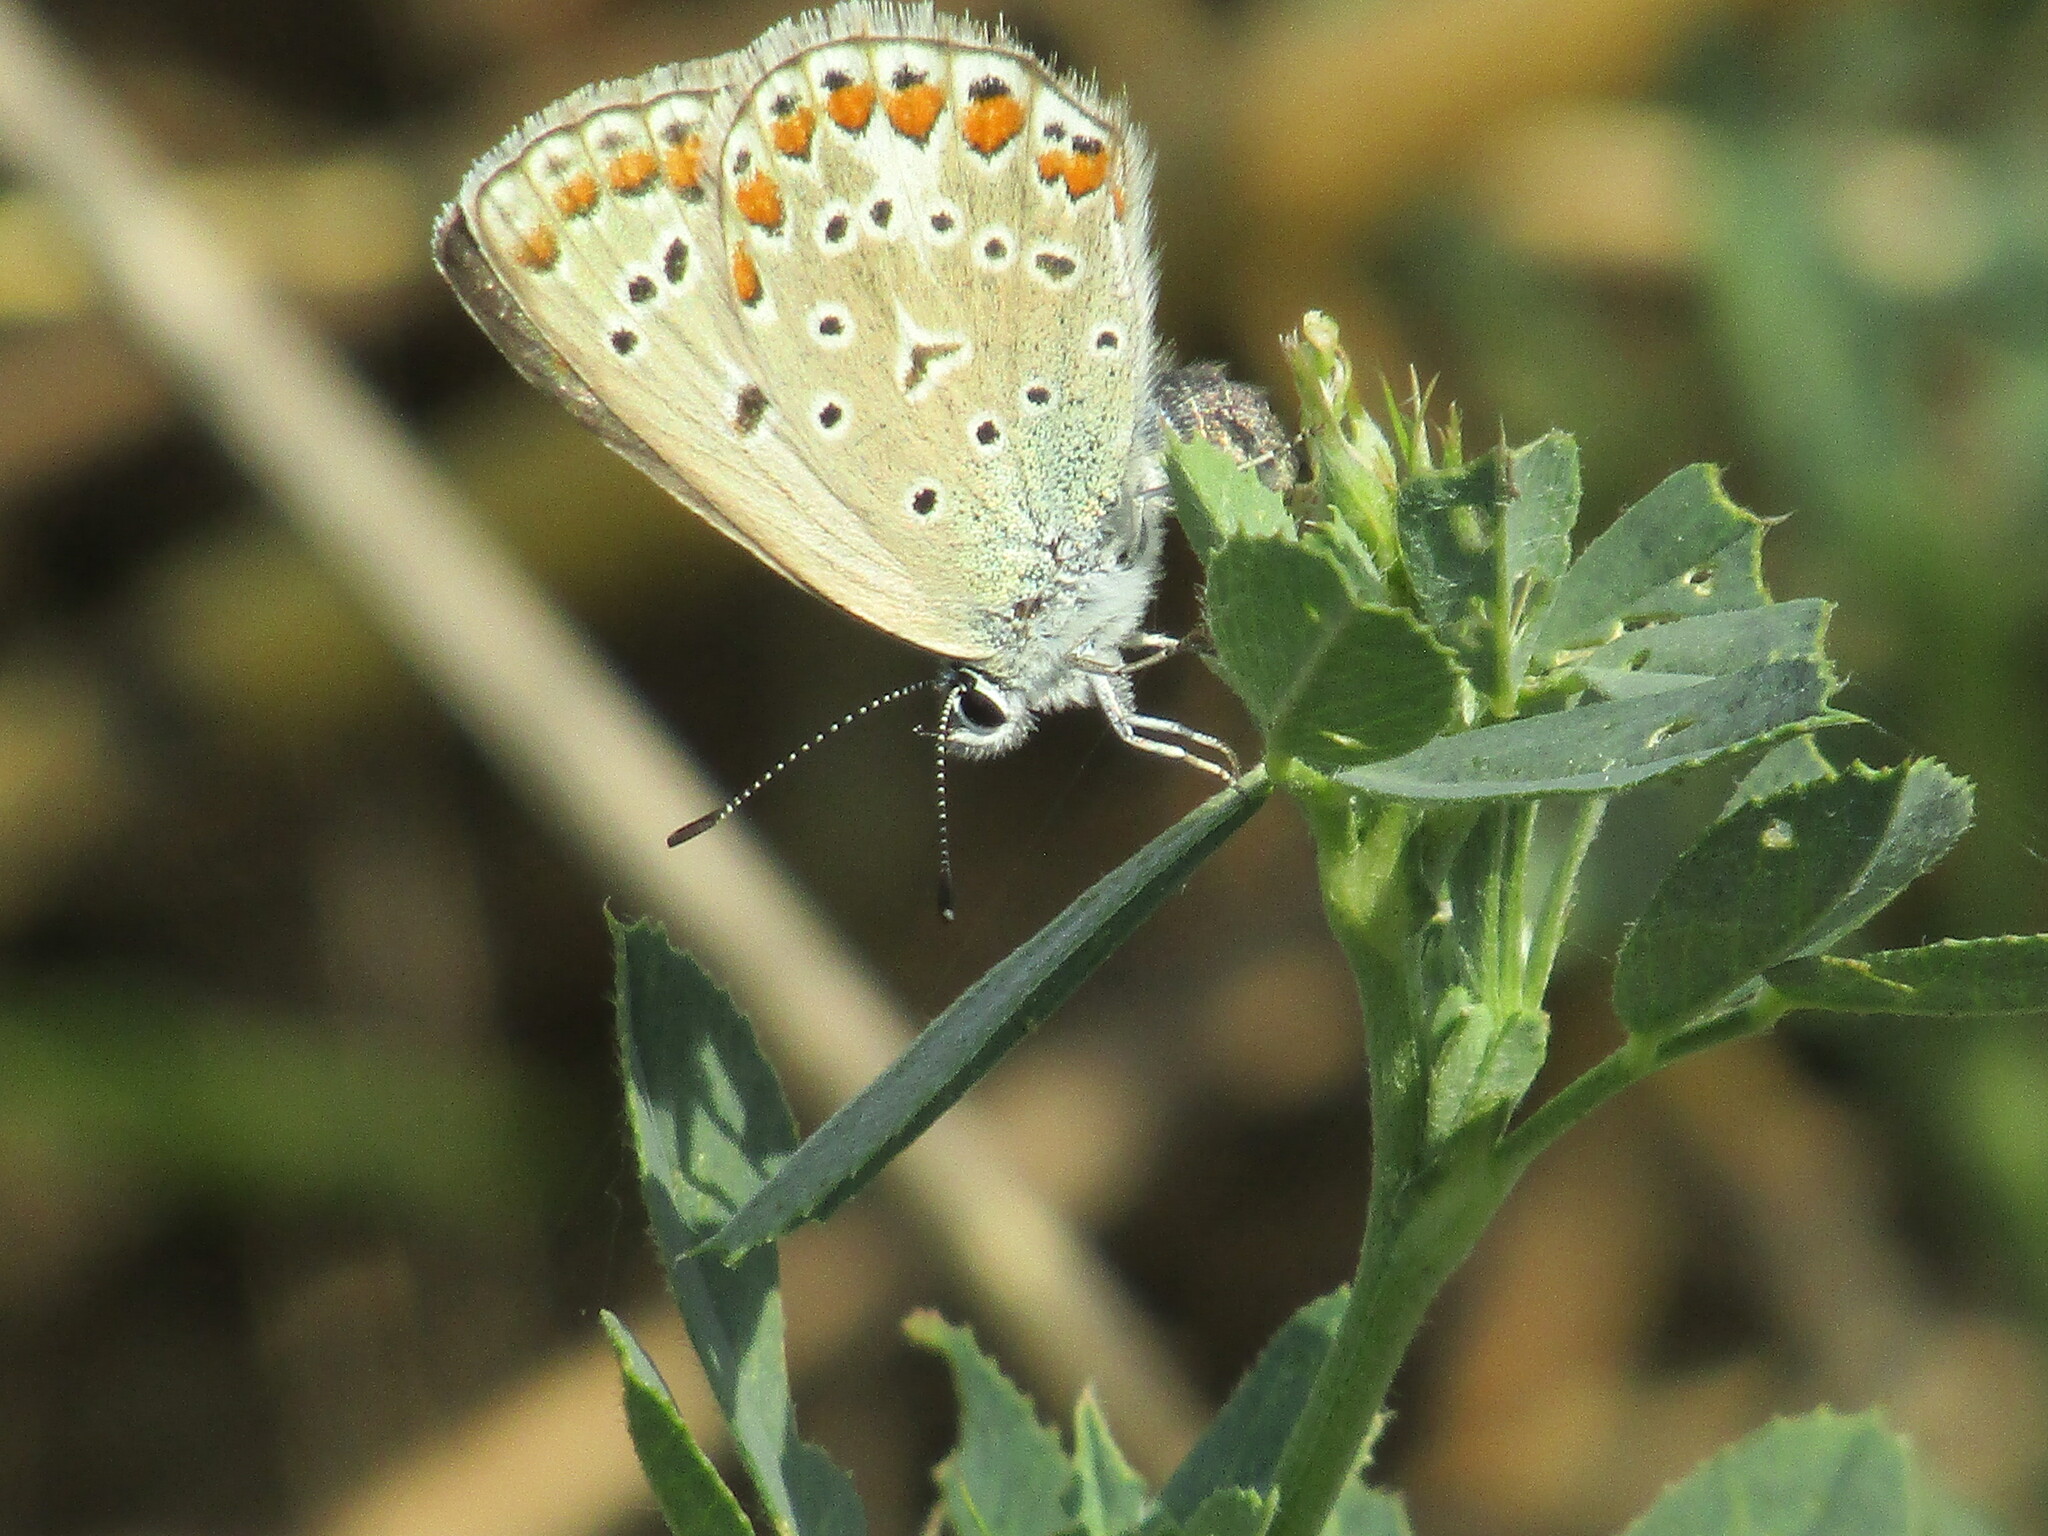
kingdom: Animalia
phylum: Arthropoda
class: Insecta
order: Lepidoptera
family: Lycaenidae
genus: Polyommatus
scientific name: Polyommatus icarus
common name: Common blue
